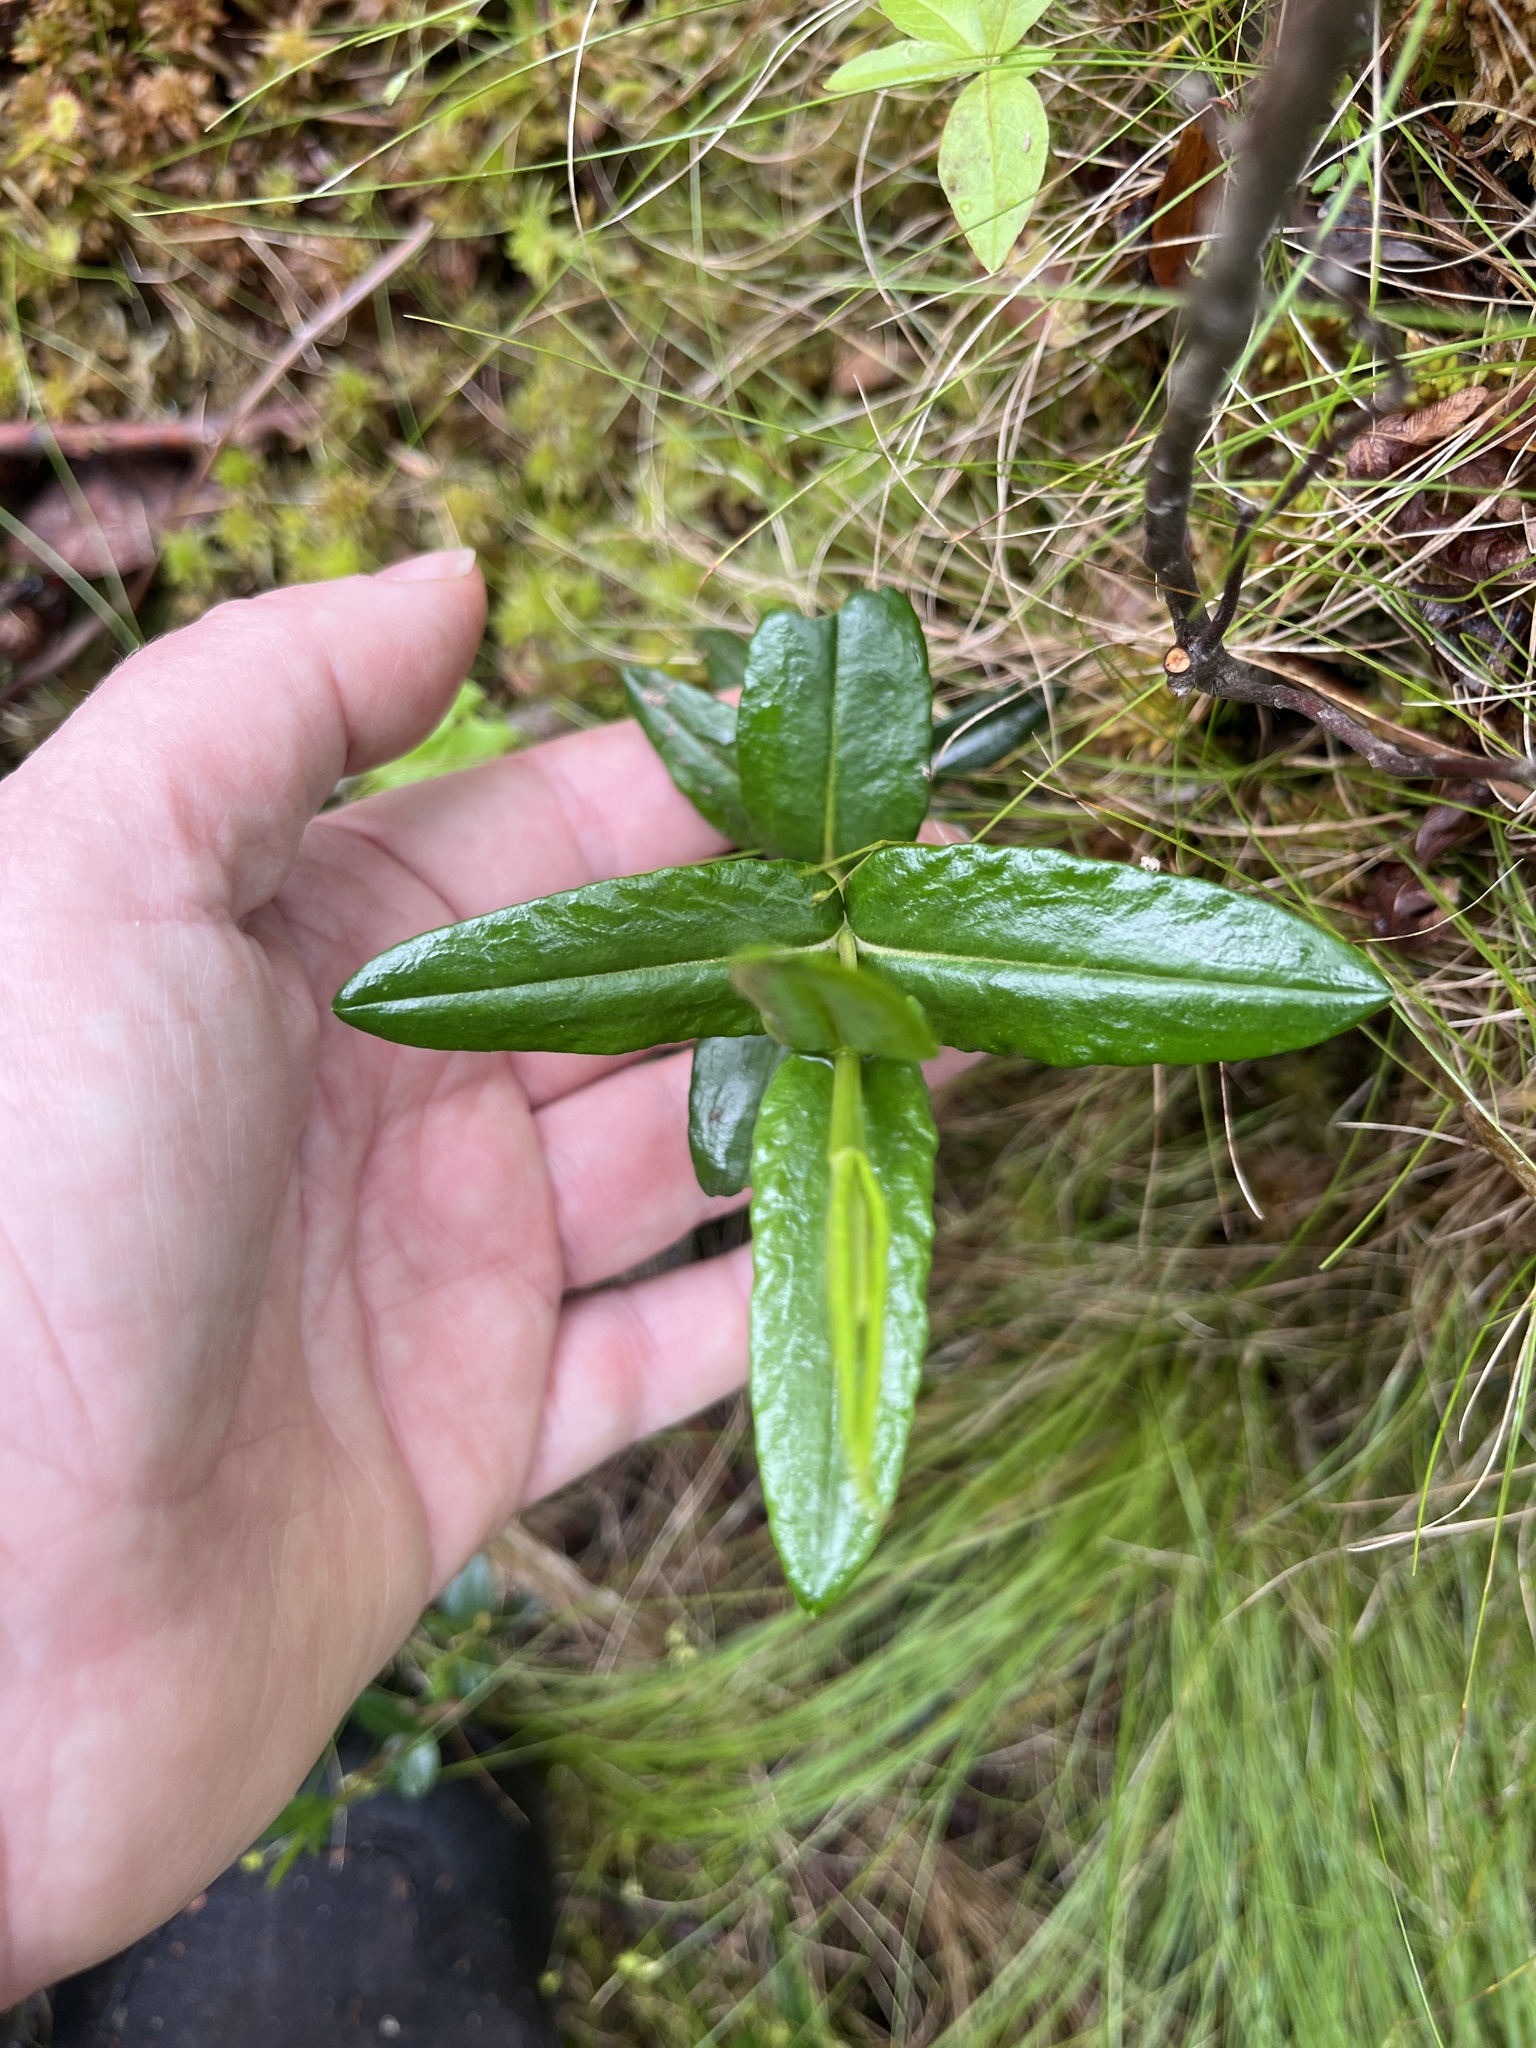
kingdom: Plantae
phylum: Tracheophyta
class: Magnoliopsida
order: Ericales
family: Ericaceae
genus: Kalmia
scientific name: Kalmia polifolia
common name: Bog-laurel
